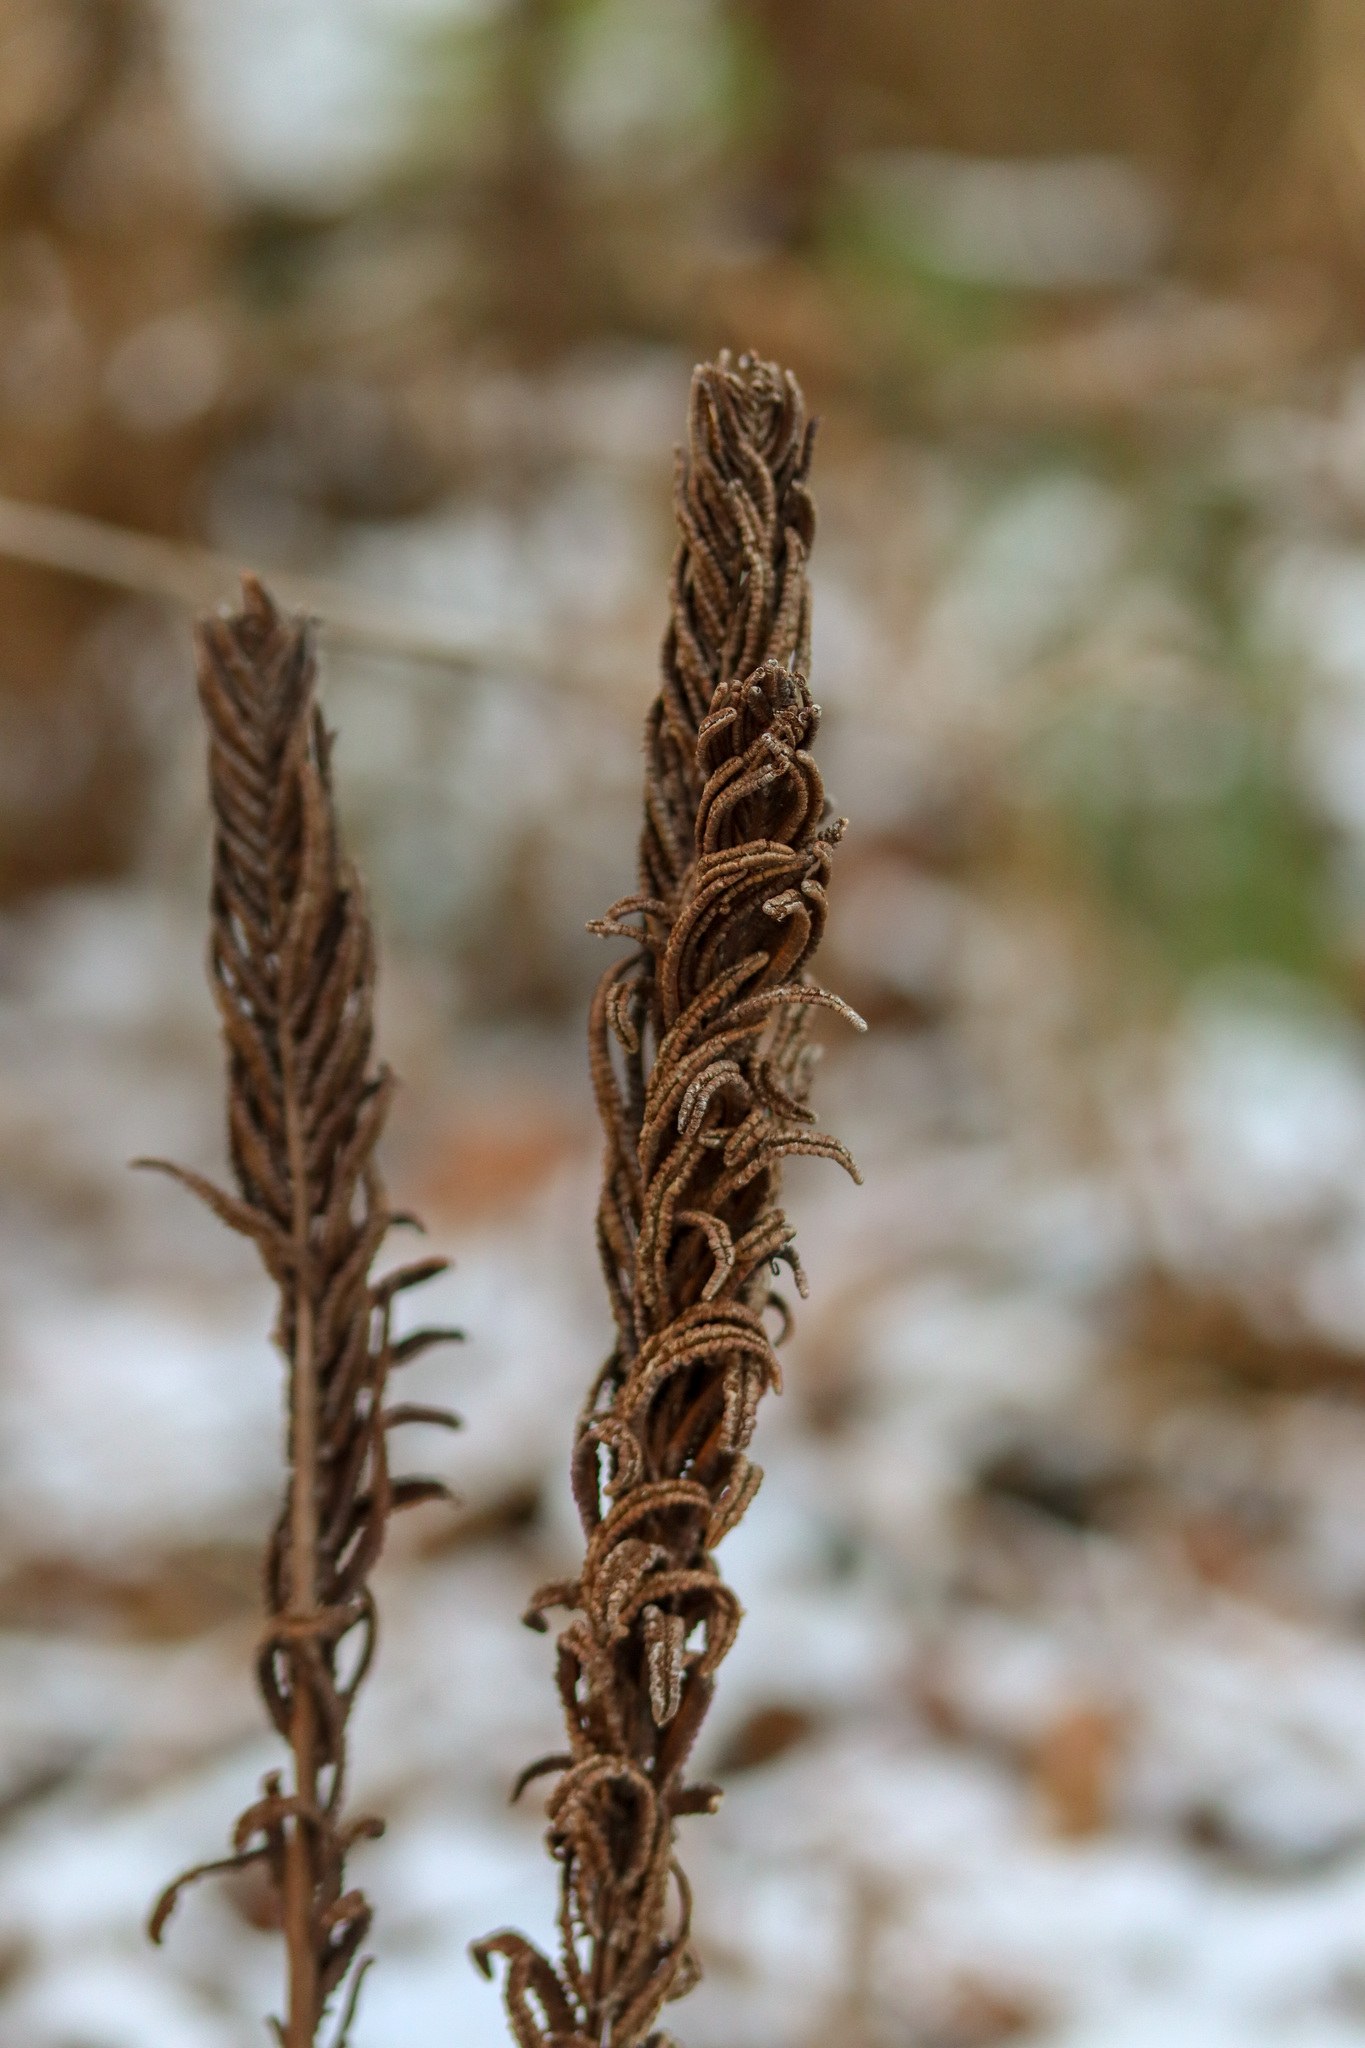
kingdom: Plantae
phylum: Tracheophyta
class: Polypodiopsida
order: Polypodiales
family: Onocleaceae
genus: Matteuccia
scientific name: Matteuccia struthiopteris
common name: Ostrich fern
